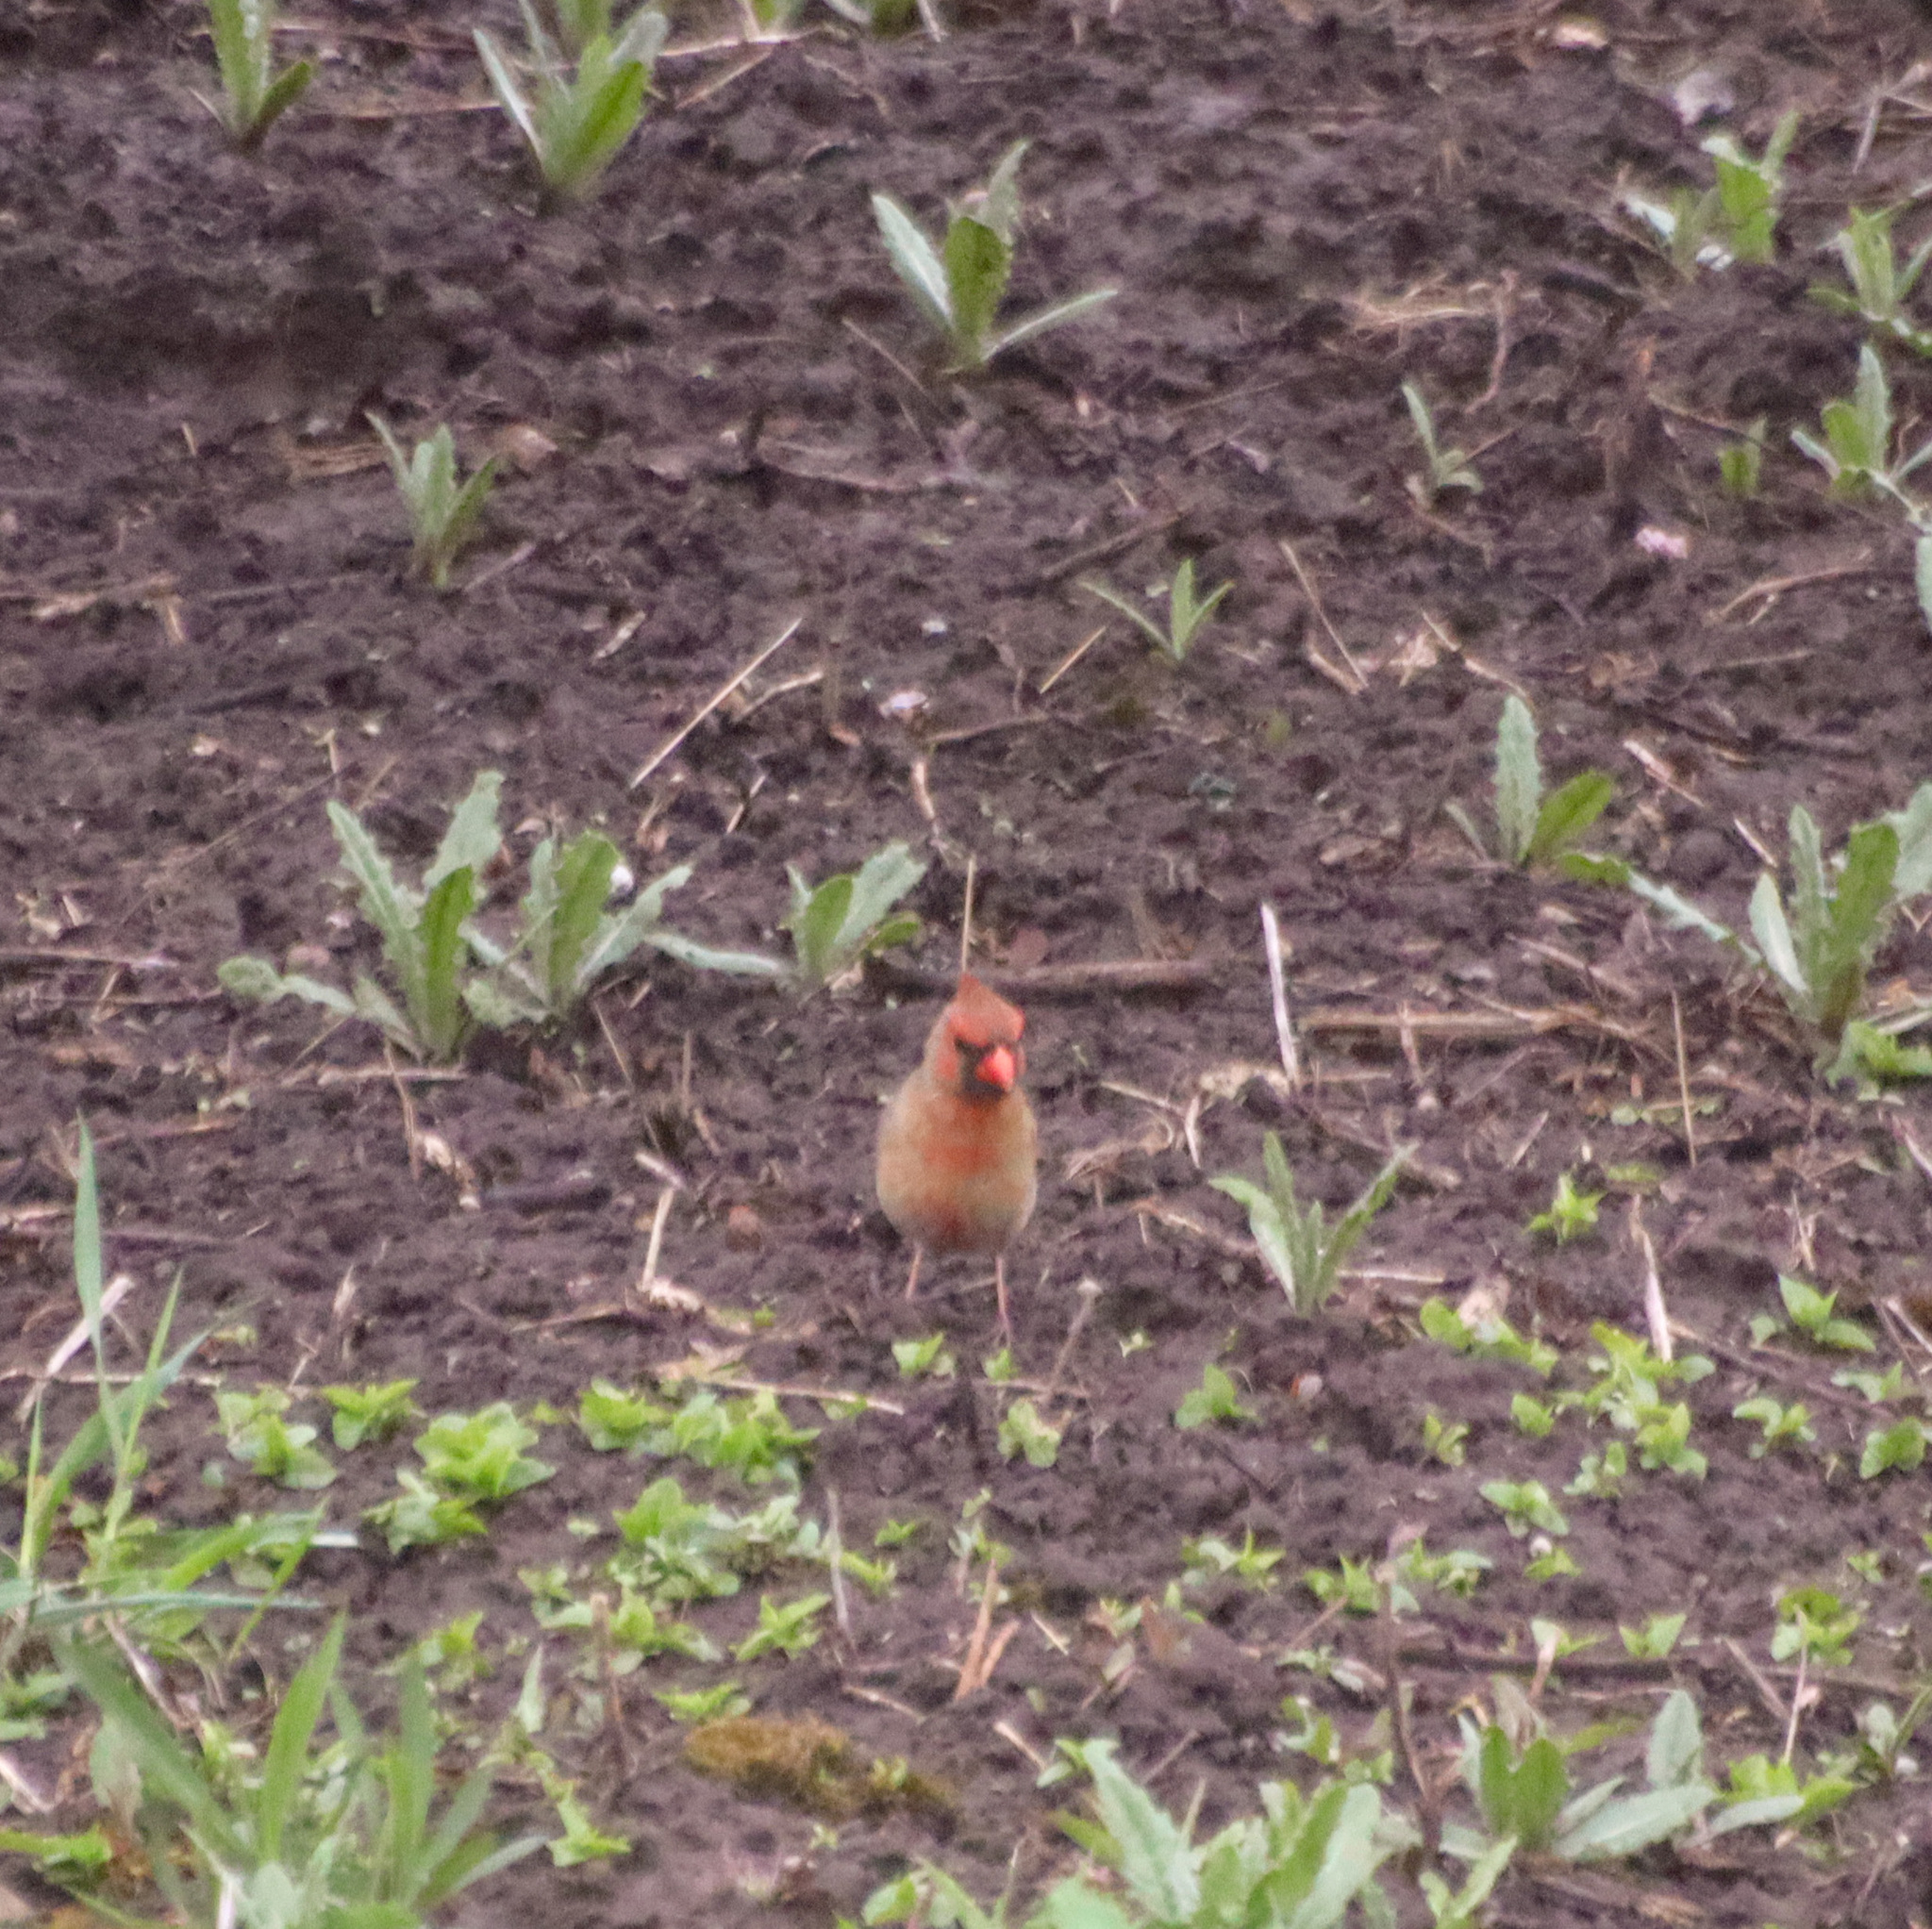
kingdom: Animalia
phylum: Chordata
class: Aves
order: Passeriformes
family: Cardinalidae
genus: Cardinalis
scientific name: Cardinalis cardinalis
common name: Northern cardinal
